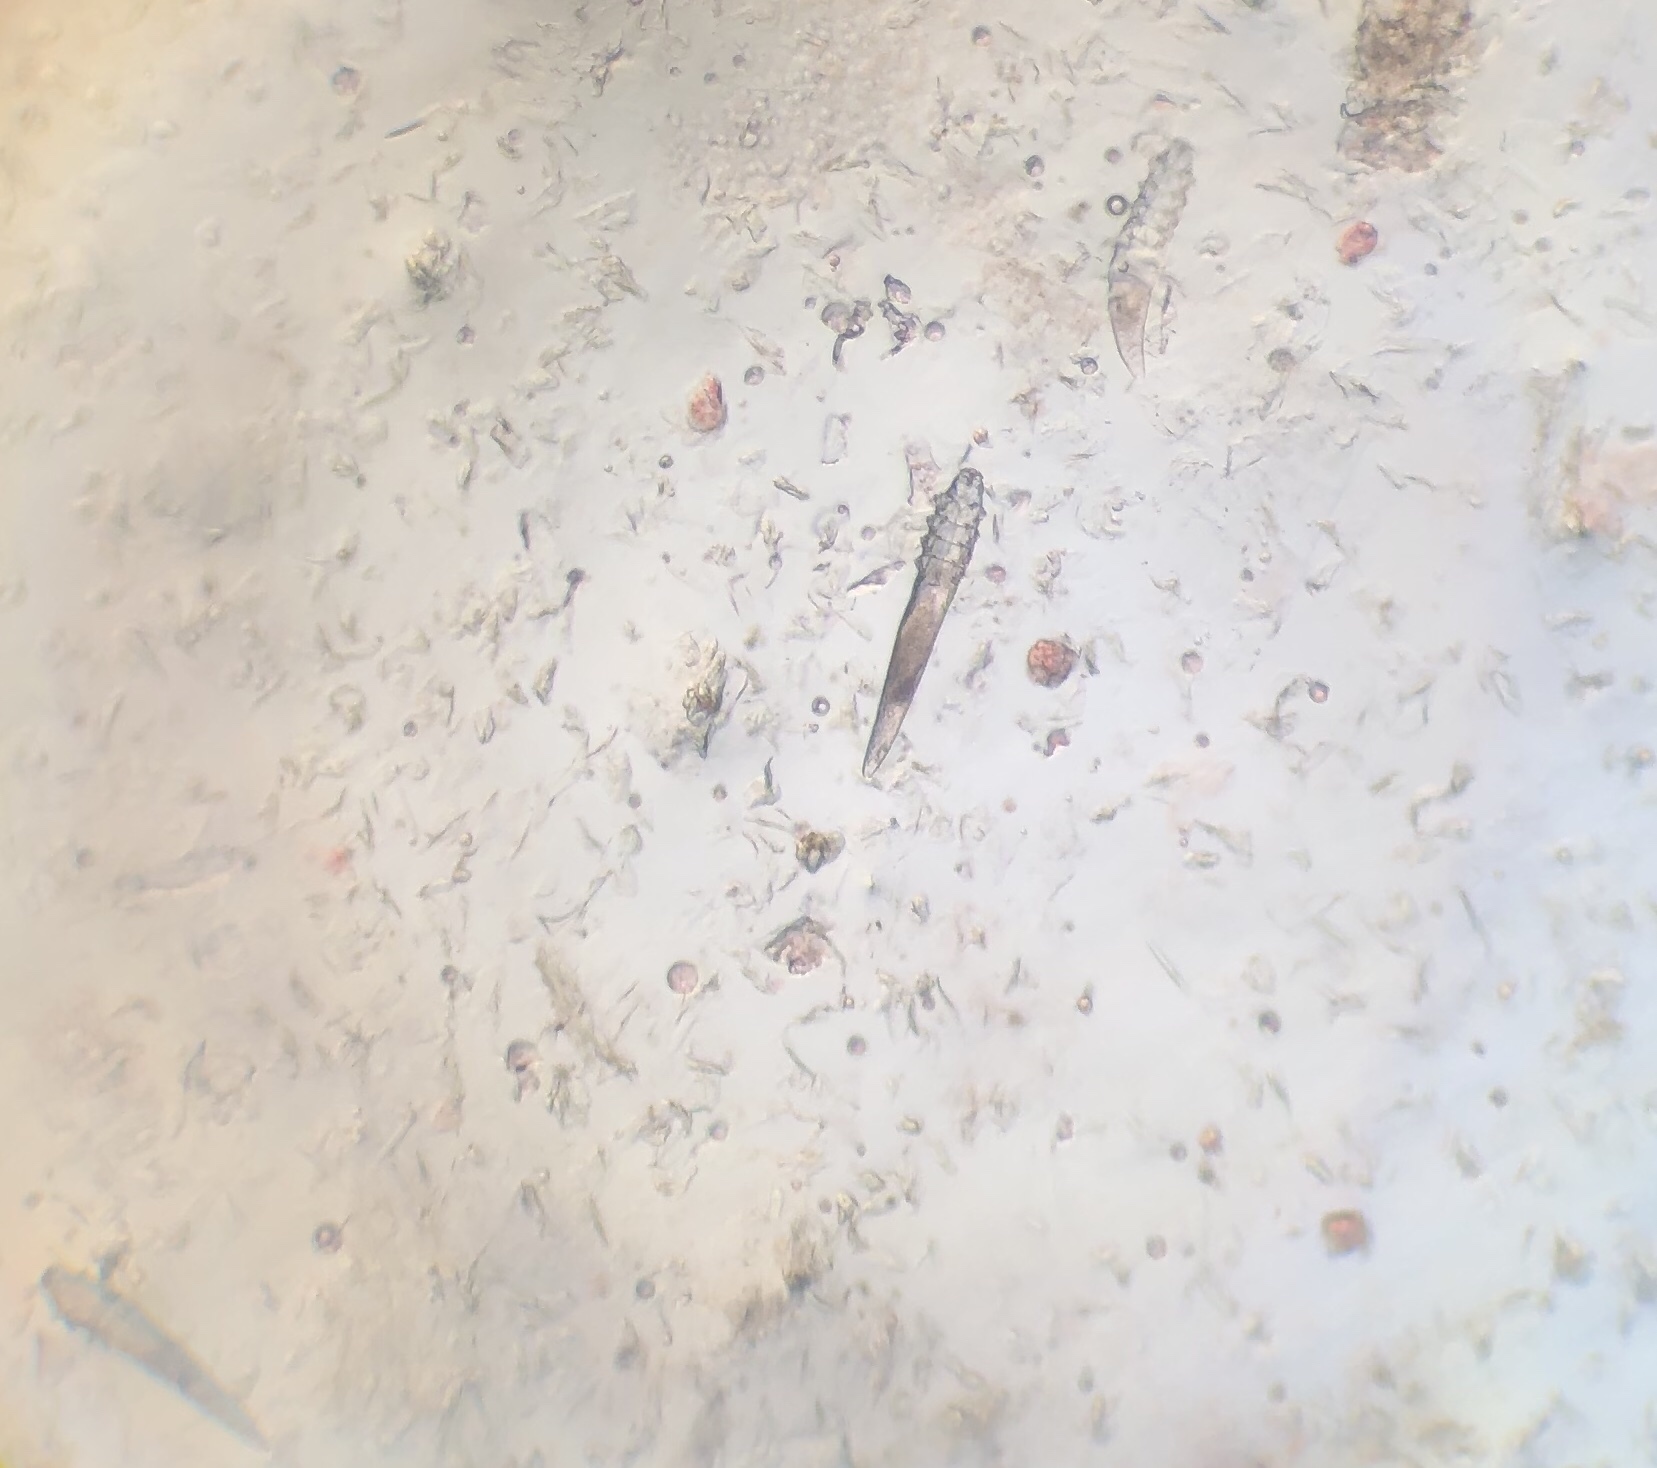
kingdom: Animalia
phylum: Arthropoda
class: Arachnida
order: Trombidiformes
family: Demodecidae
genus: Demodex
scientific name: Demodex canis
